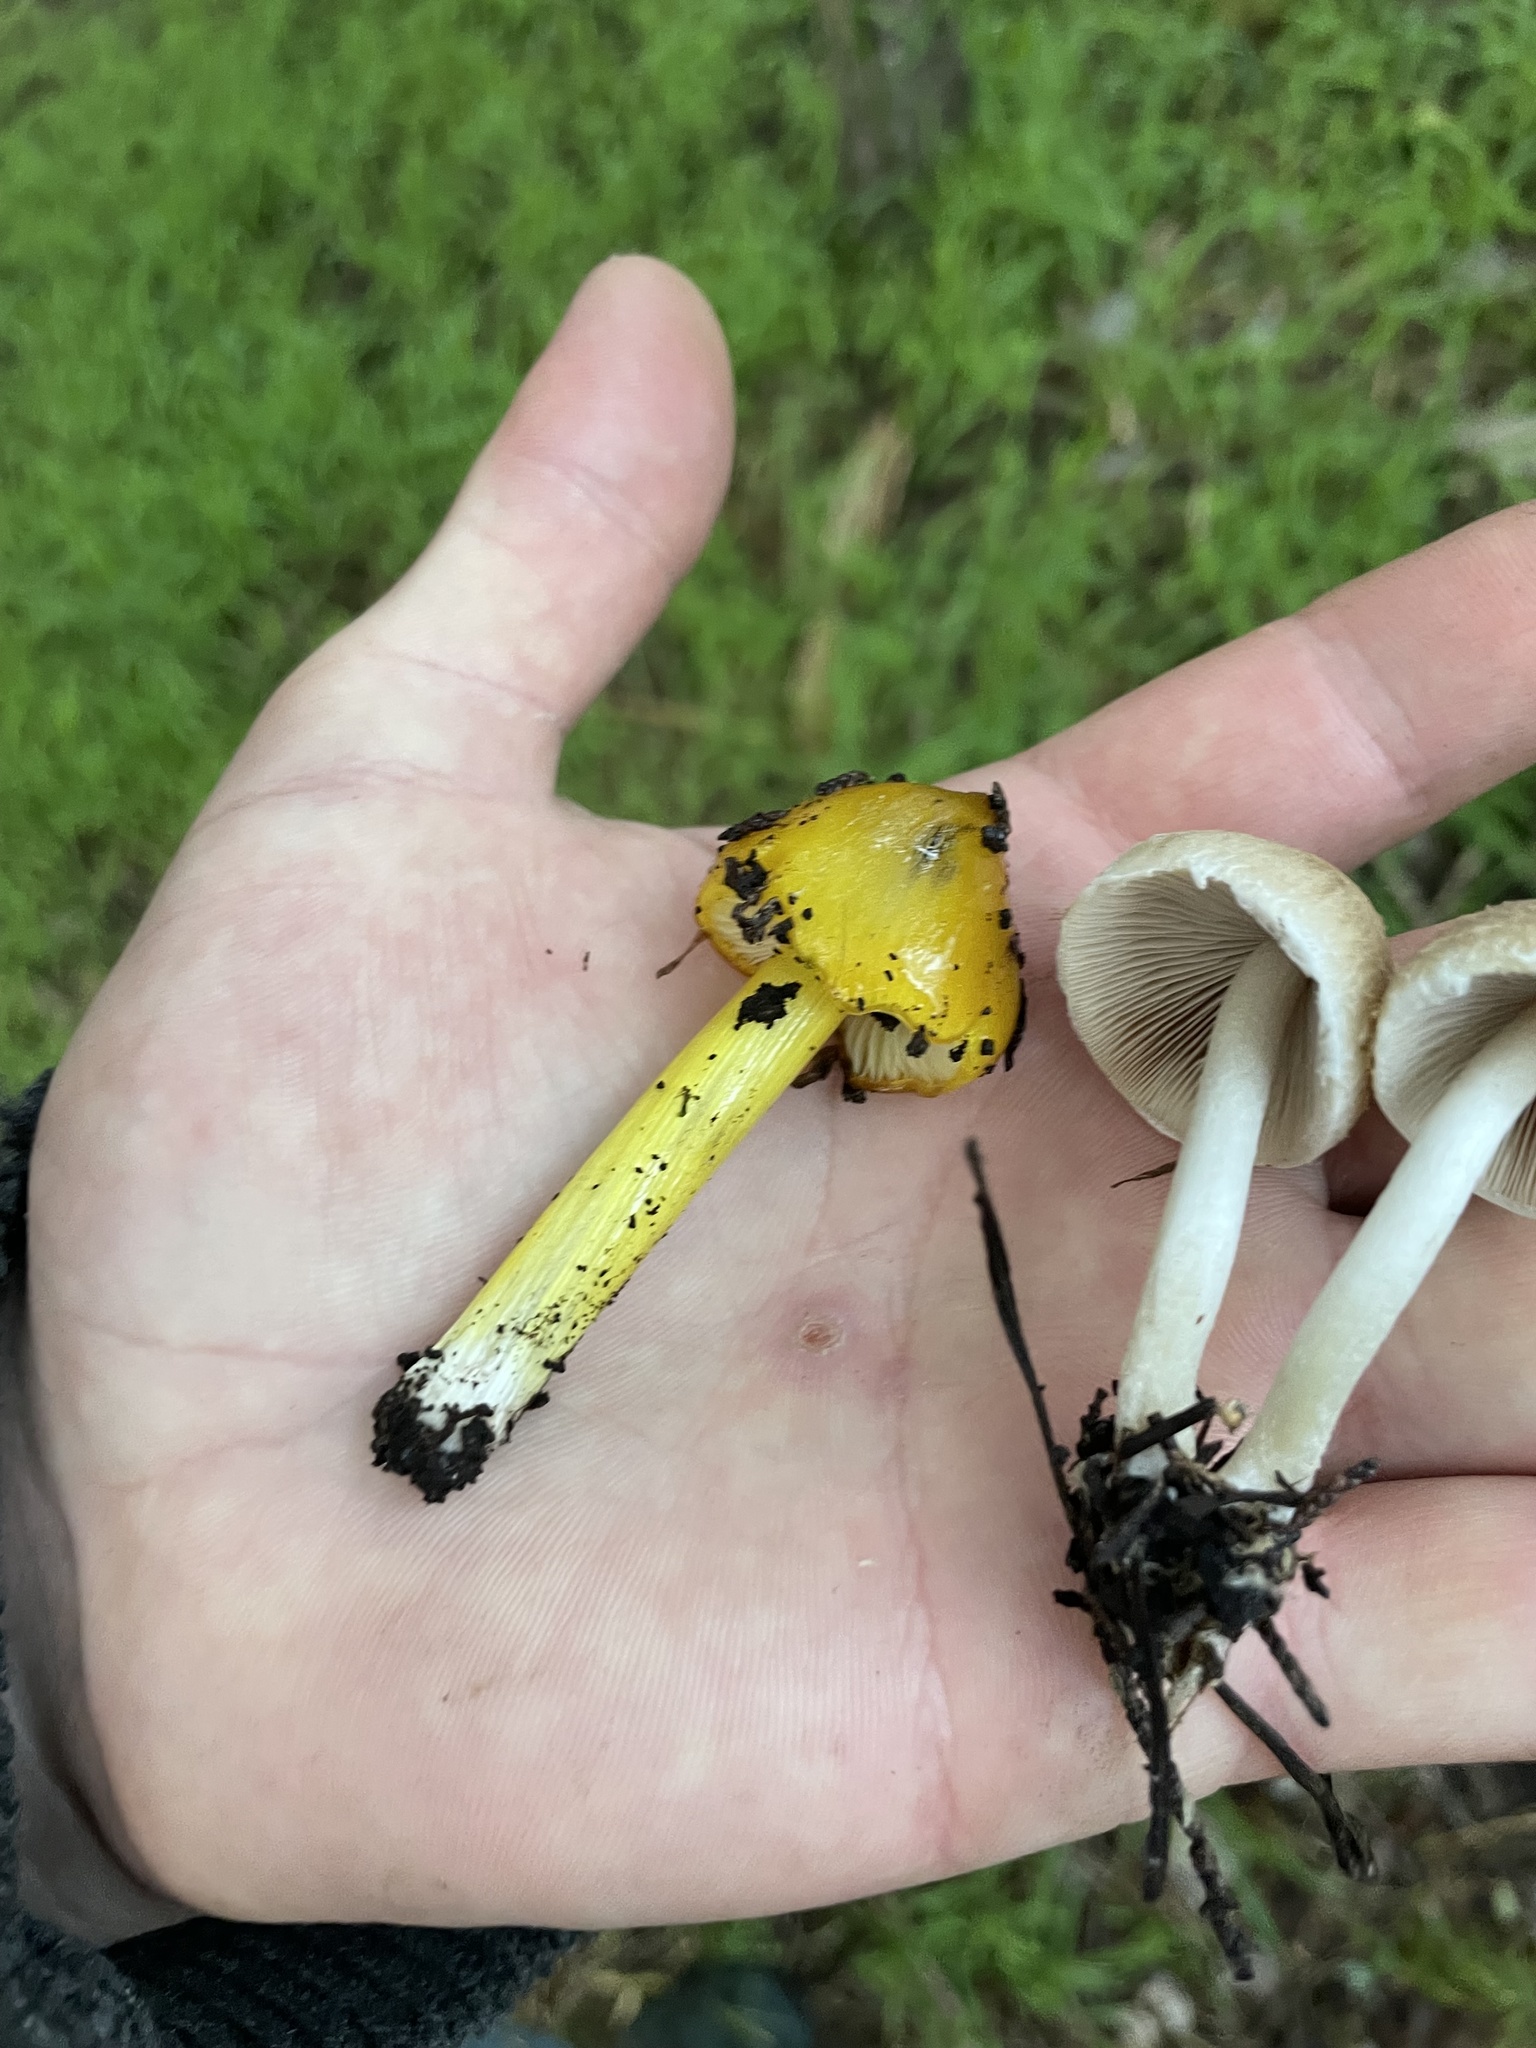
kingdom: Fungi
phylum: Basidiomycota
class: Agaricomycetes
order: Agaricales
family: Hygrophoraceae
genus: Hygrocybe
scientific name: Hygrocybe singeri
